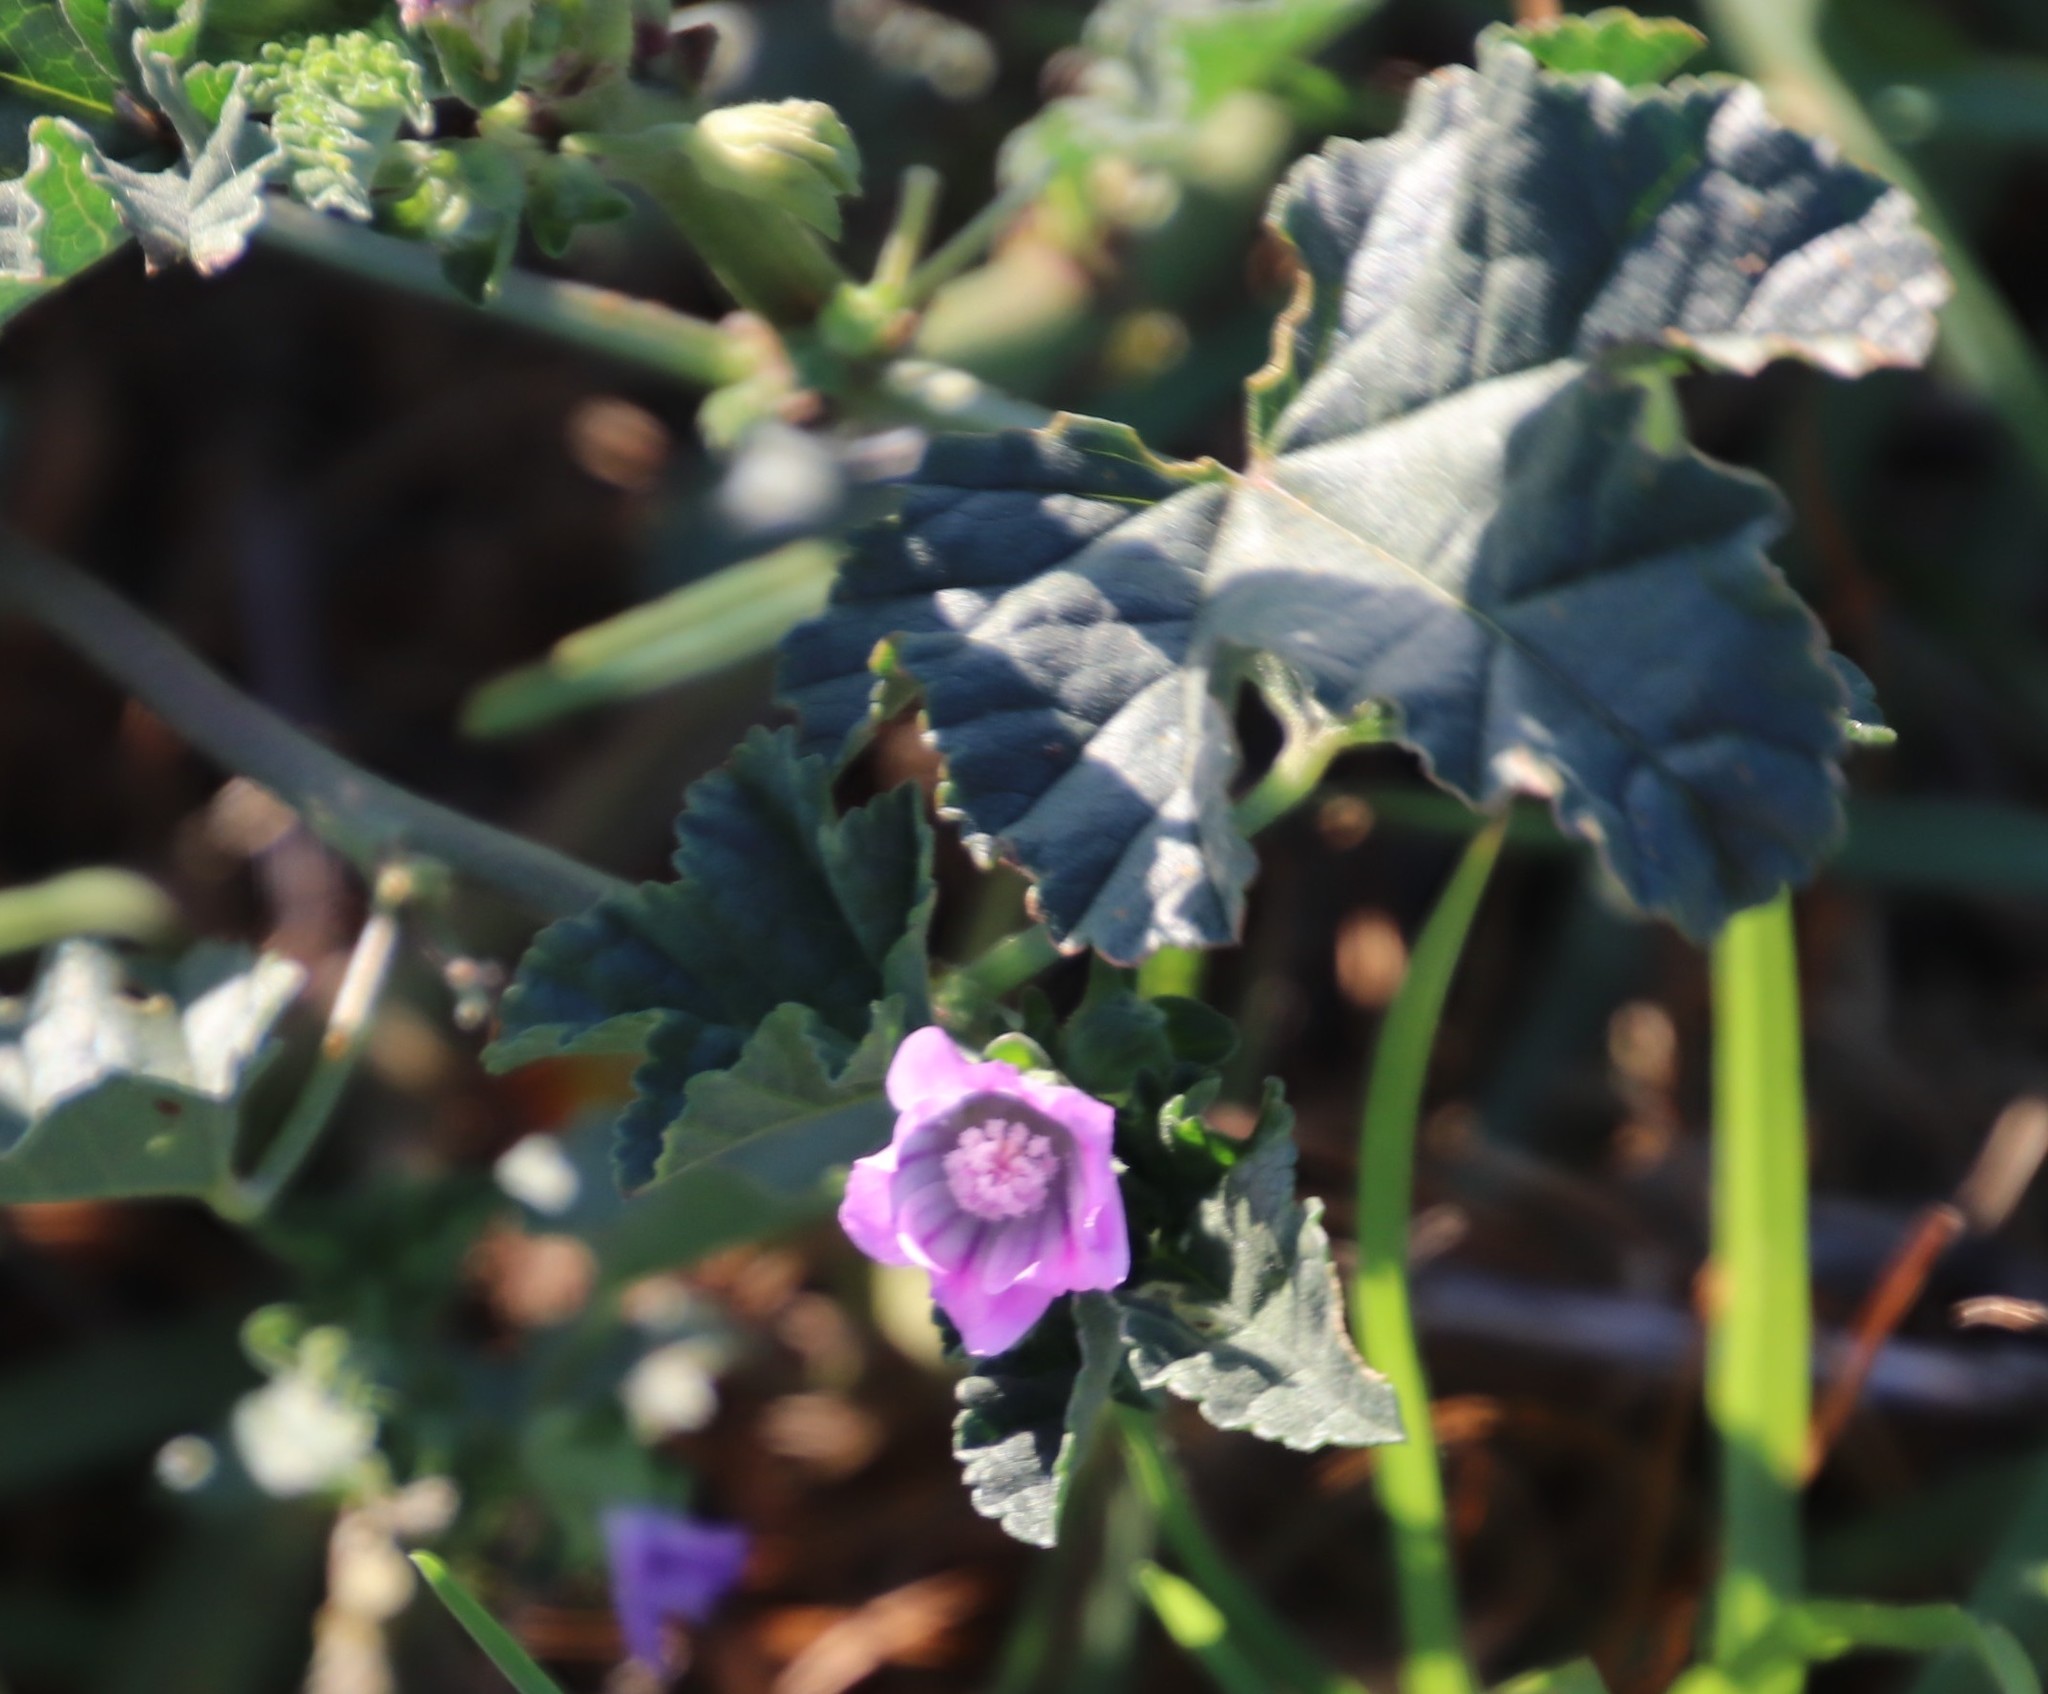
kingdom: Plantae
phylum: Tracheophyta
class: Magnoliopsida
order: Malvales
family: Malvaceae
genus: Malva
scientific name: Malva parviflora
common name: Least mallow
